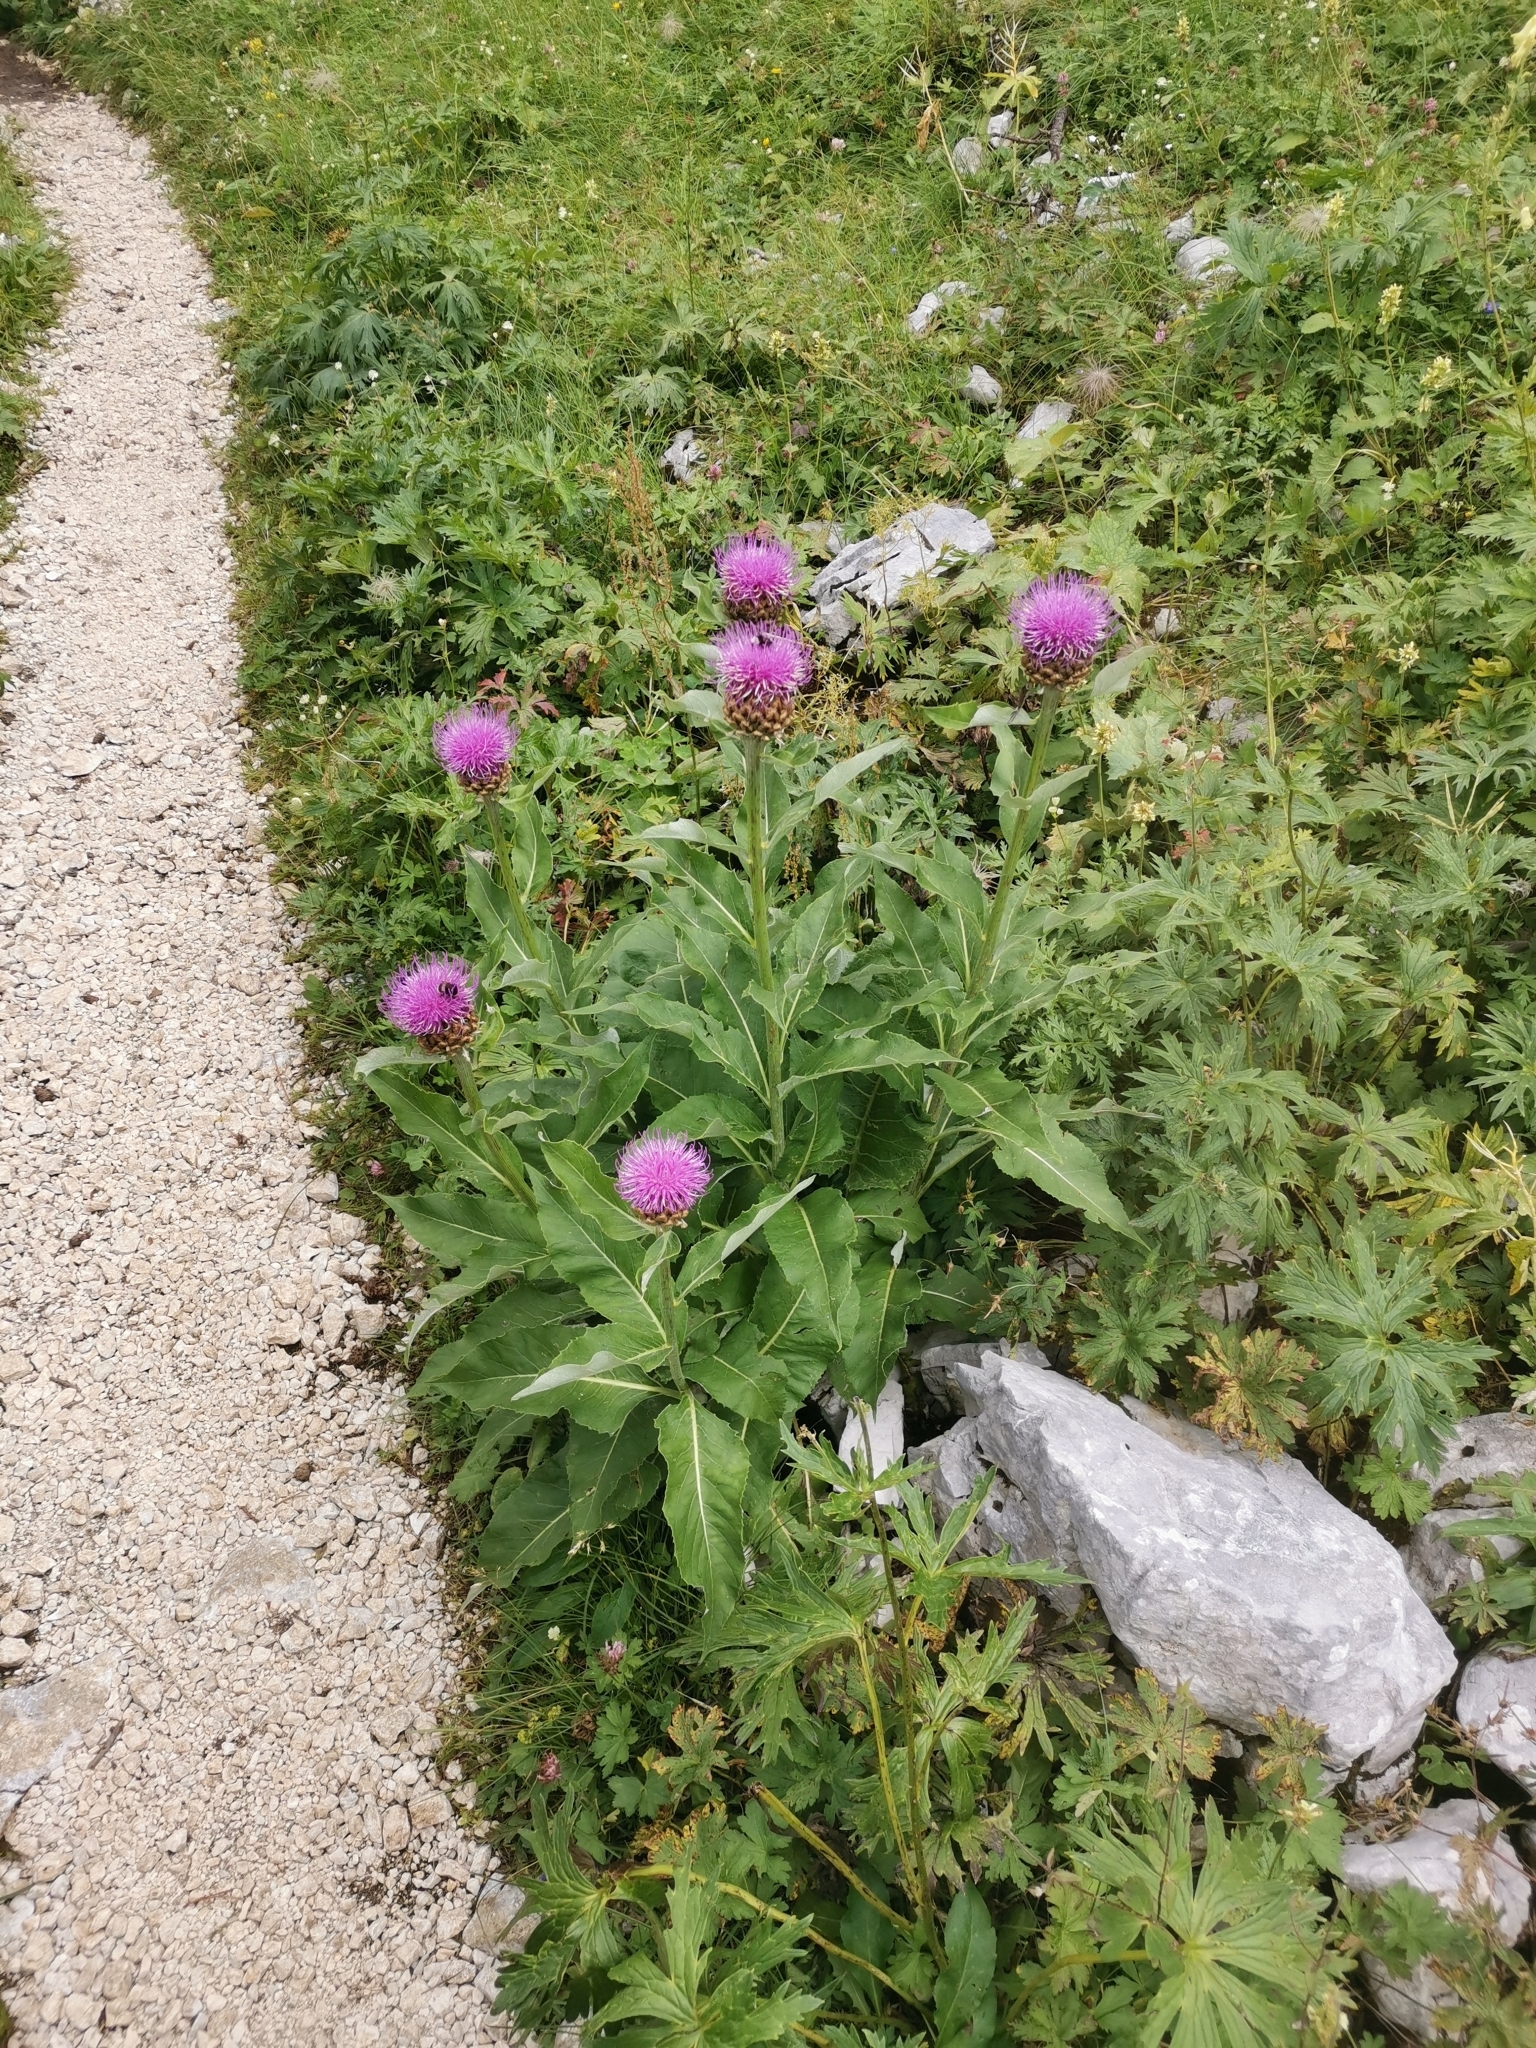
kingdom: Plantae
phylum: Tracheophyta
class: Magnoliopsida
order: Asterales
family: Asteraceae
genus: Leuzea
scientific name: Leuzea rhapontica
